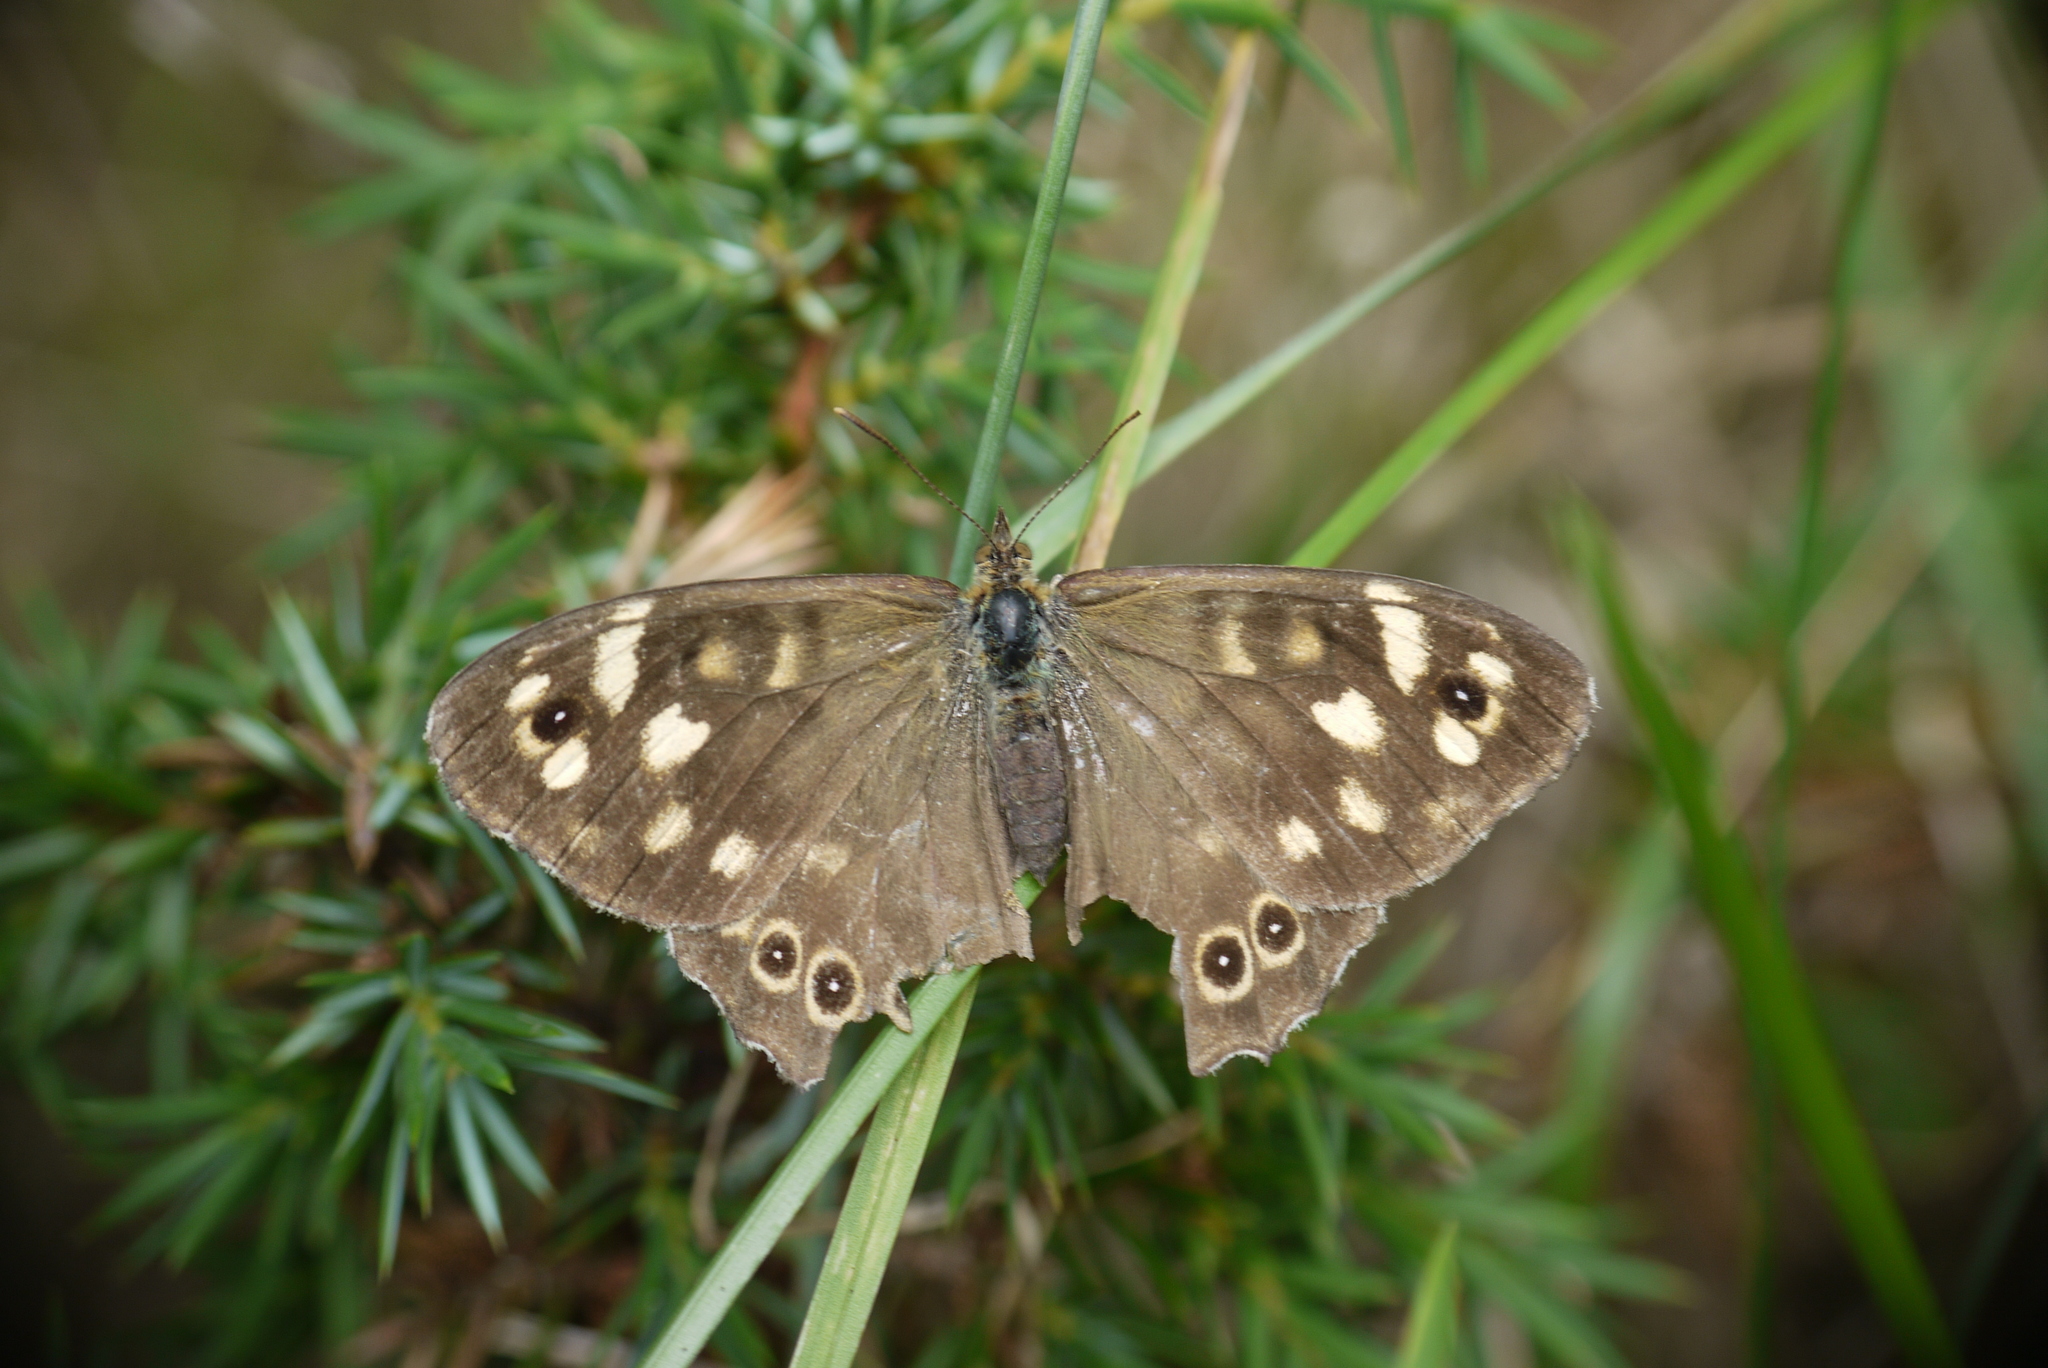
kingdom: Animalia
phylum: Arthropoda
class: Insecta
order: Lepidoptera
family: Nymphalidae
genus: Pararge
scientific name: Pararge aegeria
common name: Speckled wood
